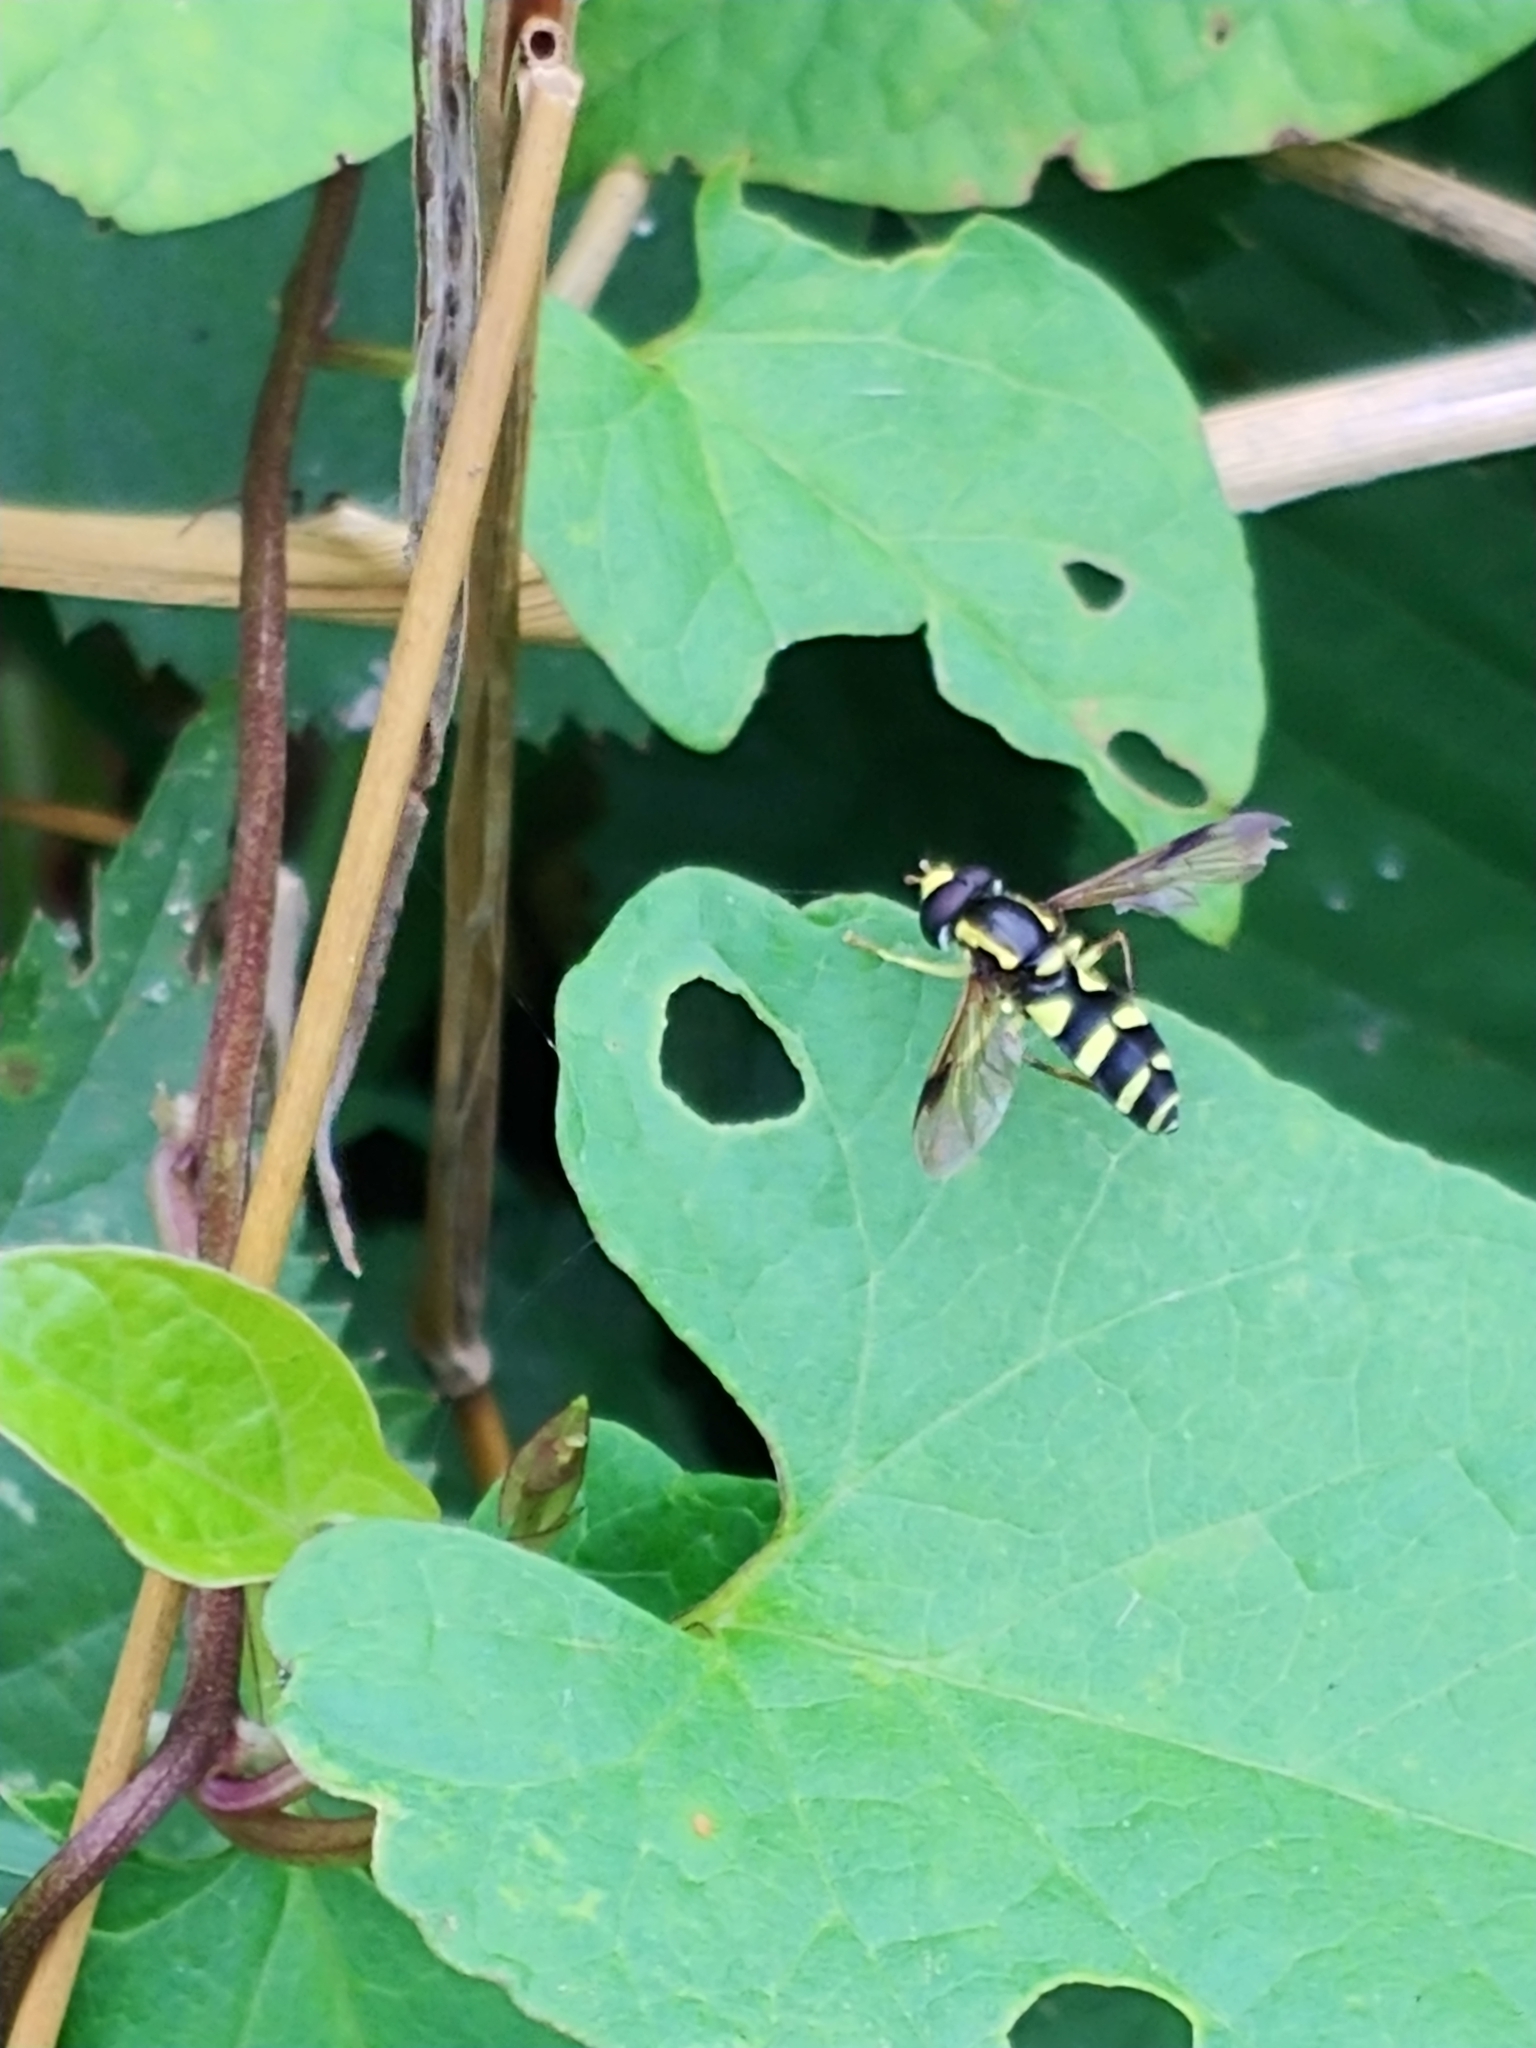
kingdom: Animalia
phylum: Arthropoda
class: Insecta
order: Diptera
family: Syrphidae
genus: Philhelius
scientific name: Philhelius pedissequum
